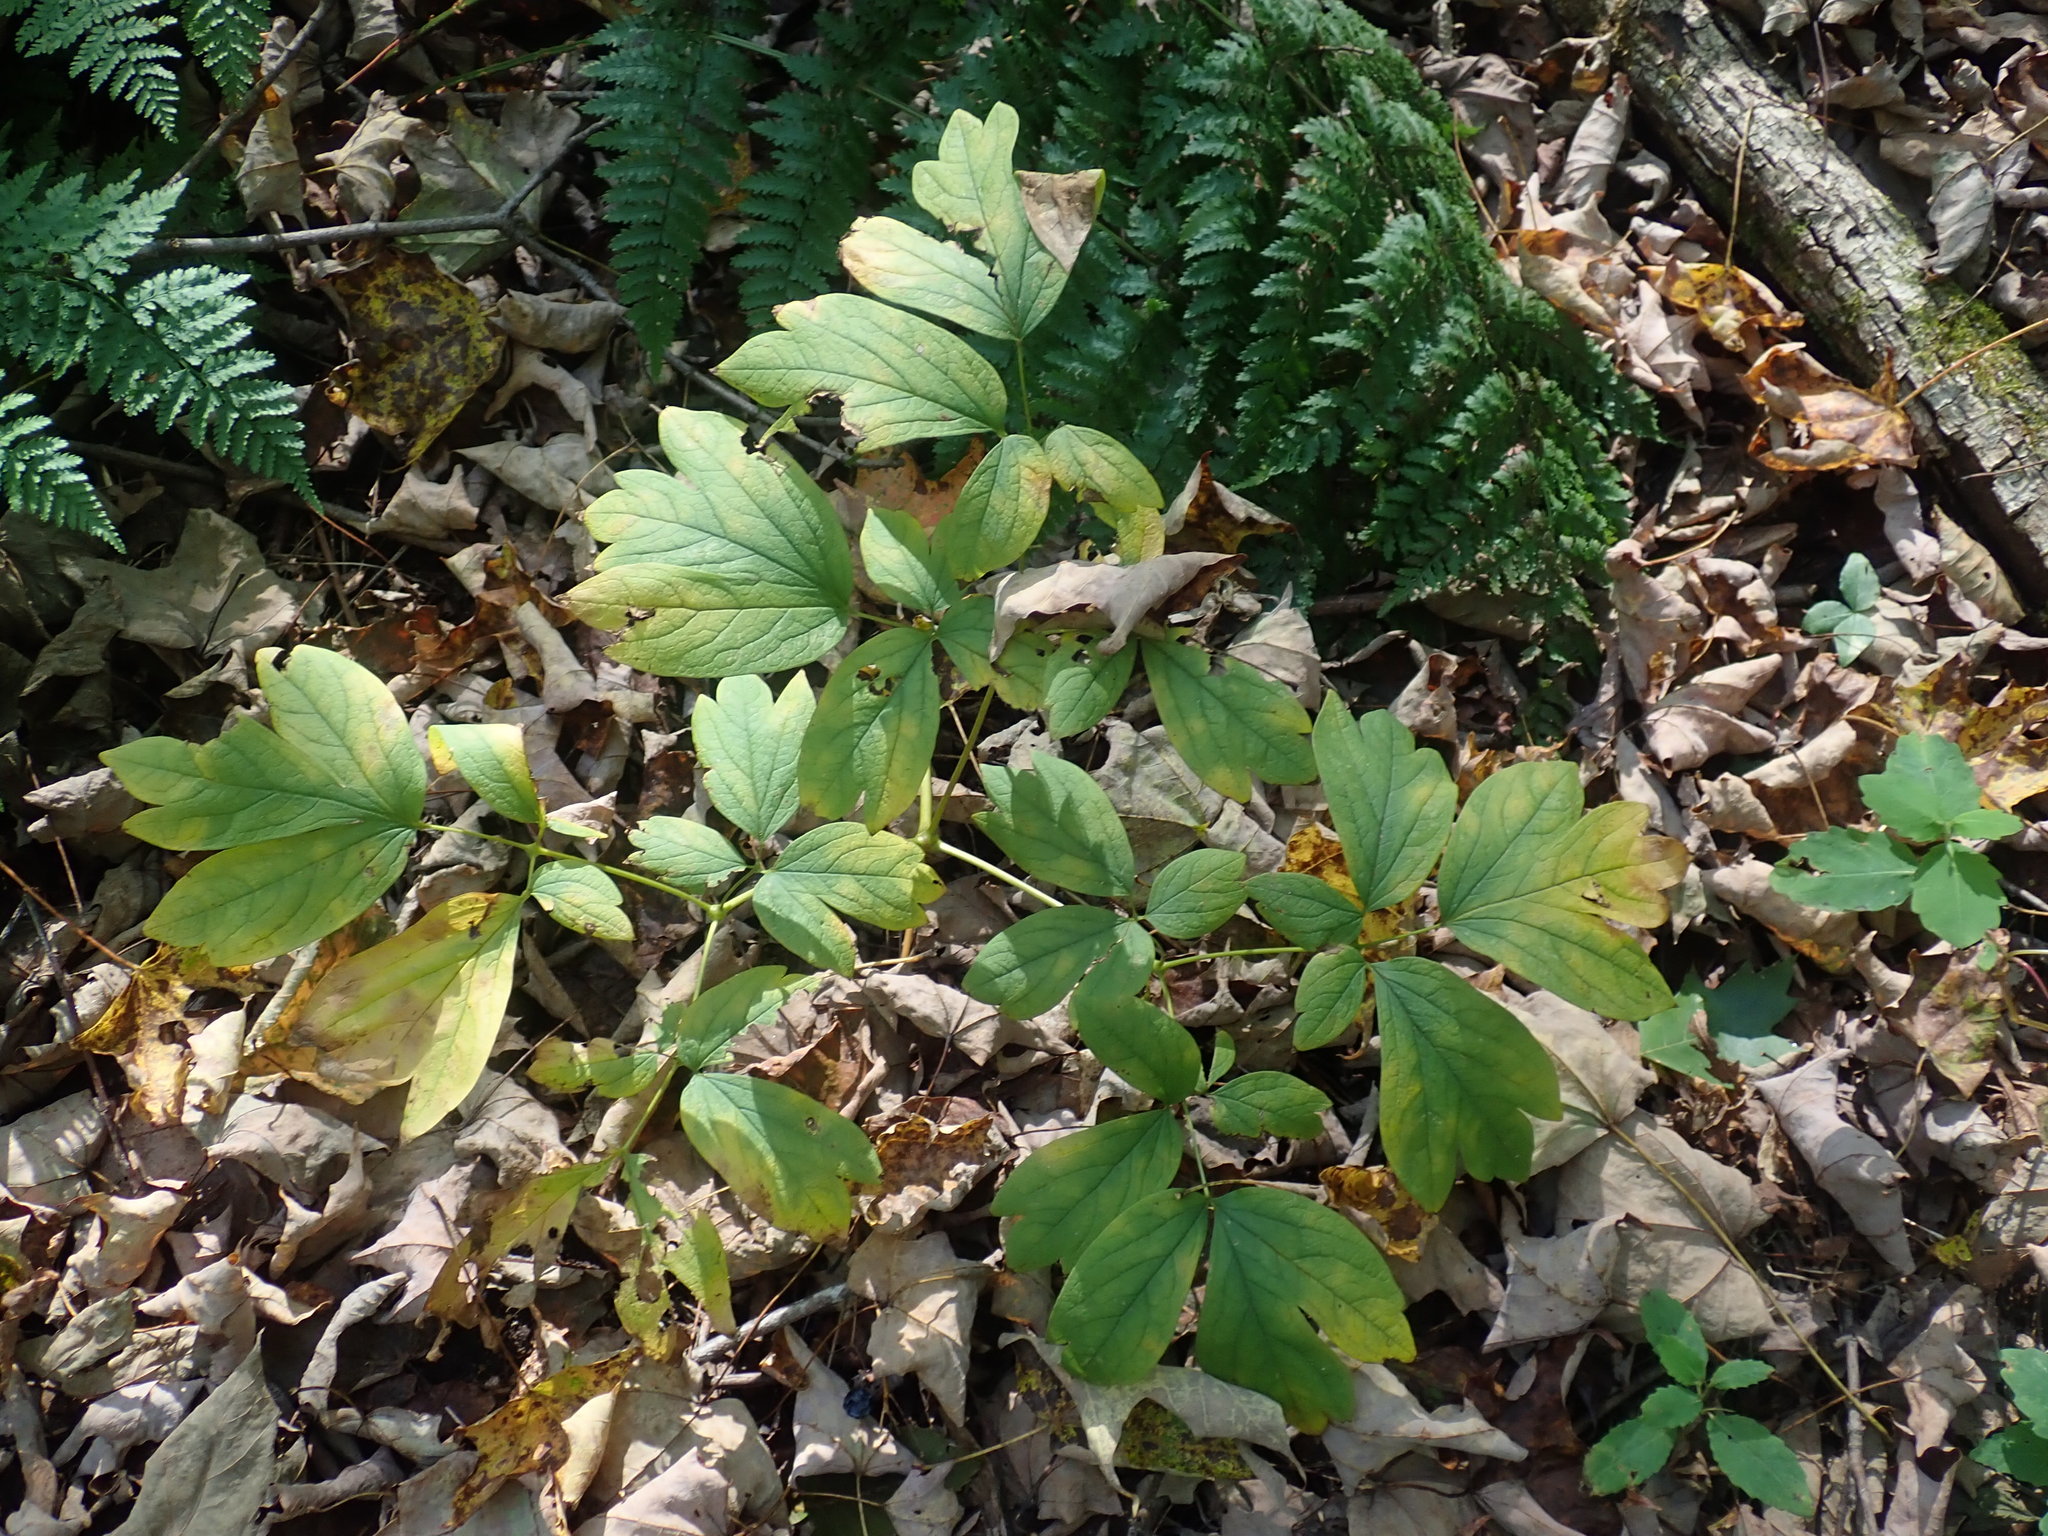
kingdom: Plantae
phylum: Tracheophyta
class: Magnoliopsida
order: Ranunculales
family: Berberidaceae
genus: Caulophyllum
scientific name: Caulophyllum
